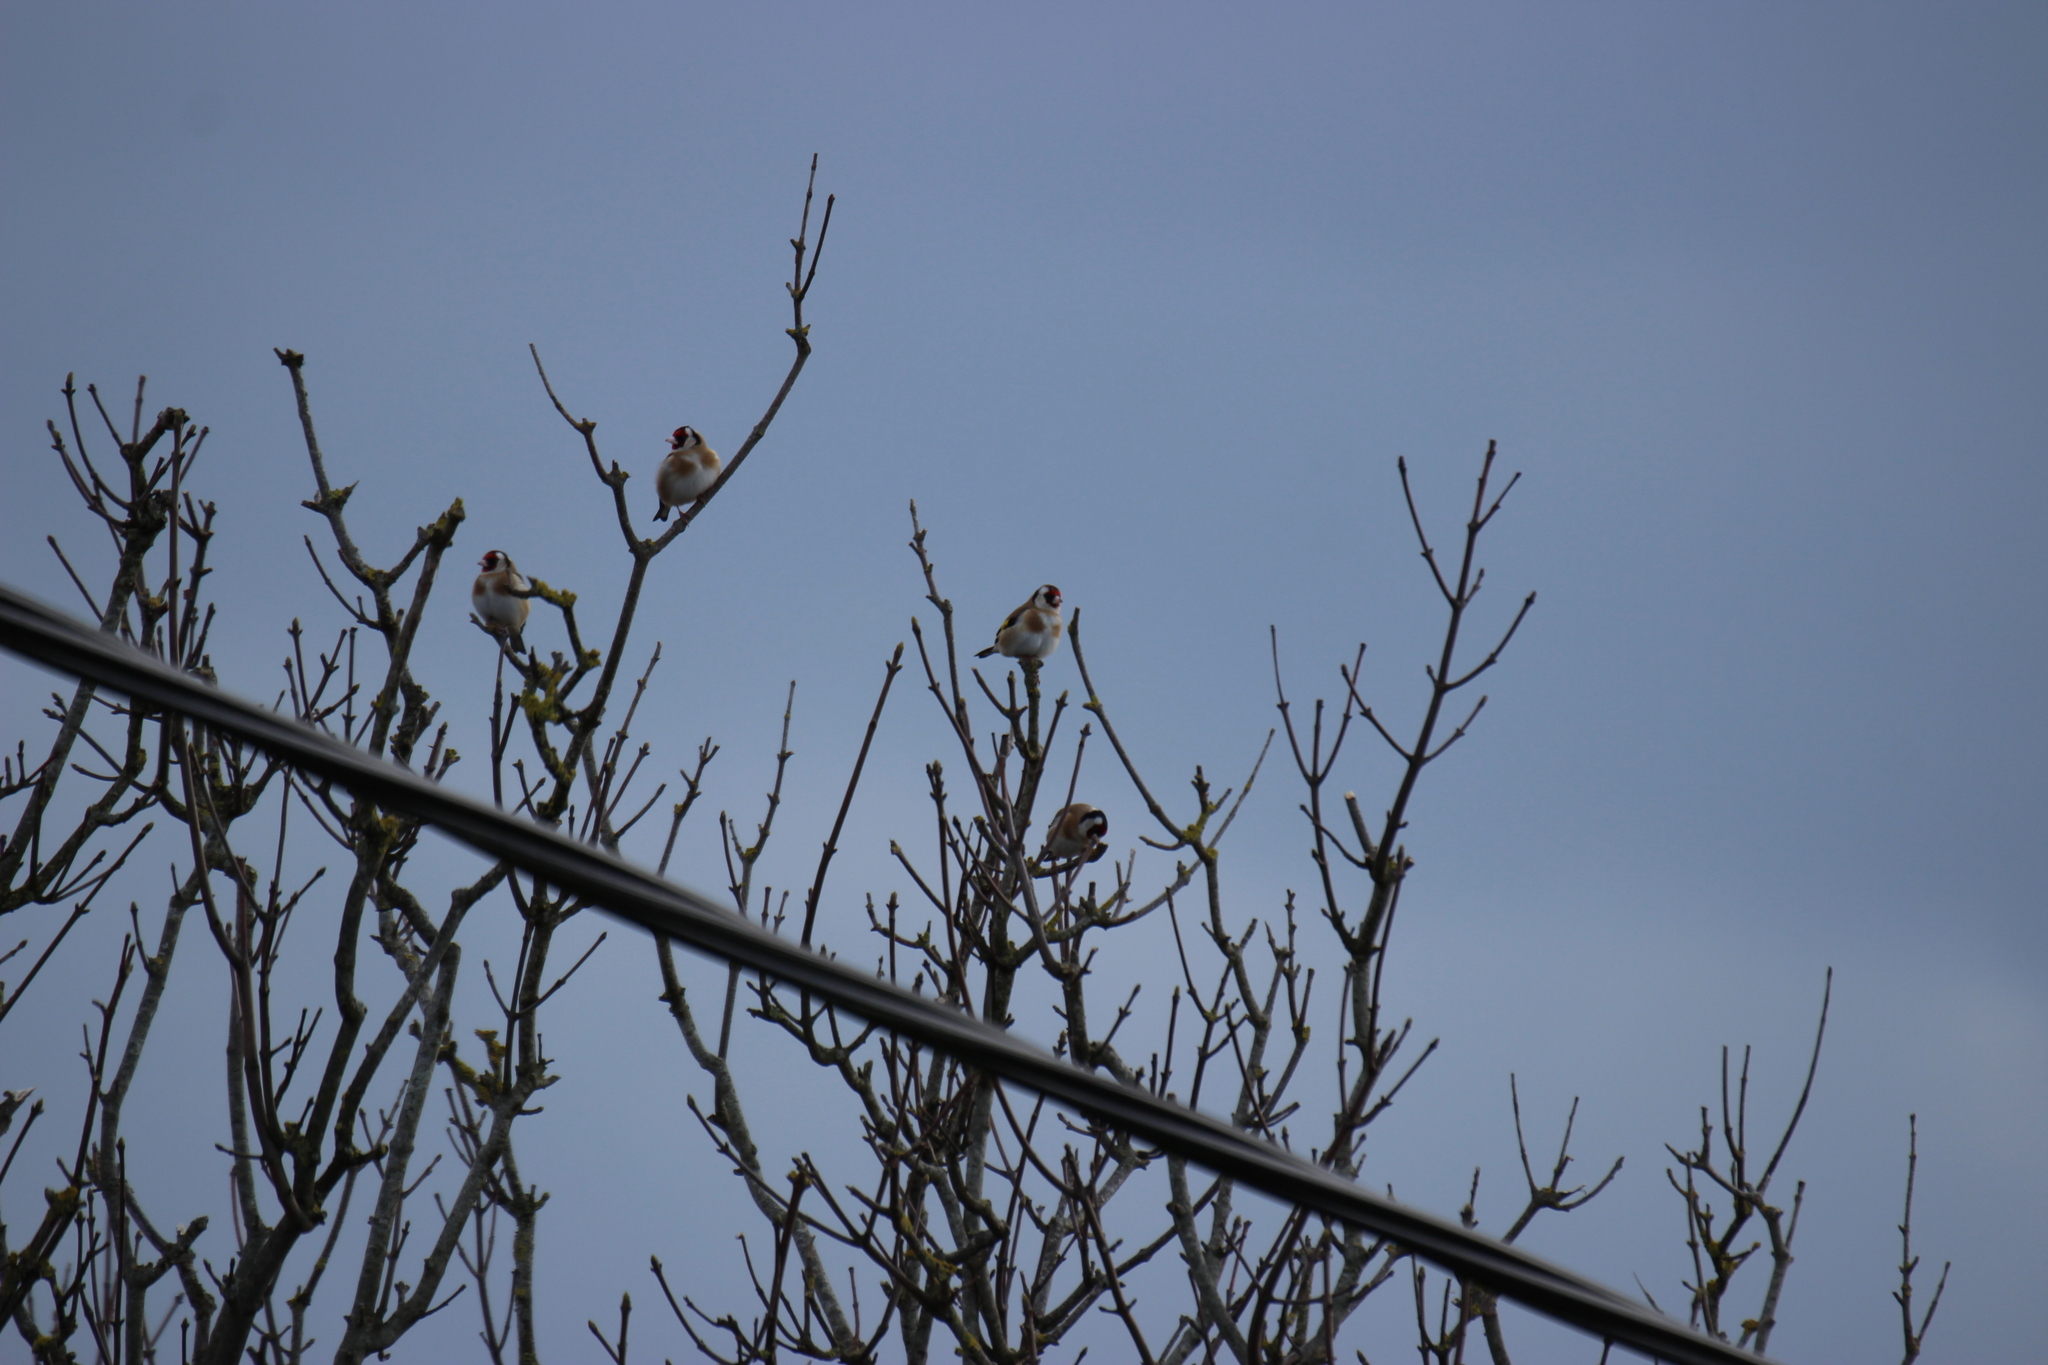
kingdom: Animalia
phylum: Chordata
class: Aves
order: Passeriformes
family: Fringillidae
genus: Carduelis
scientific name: Carduelis carduelis
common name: European goldfinch
